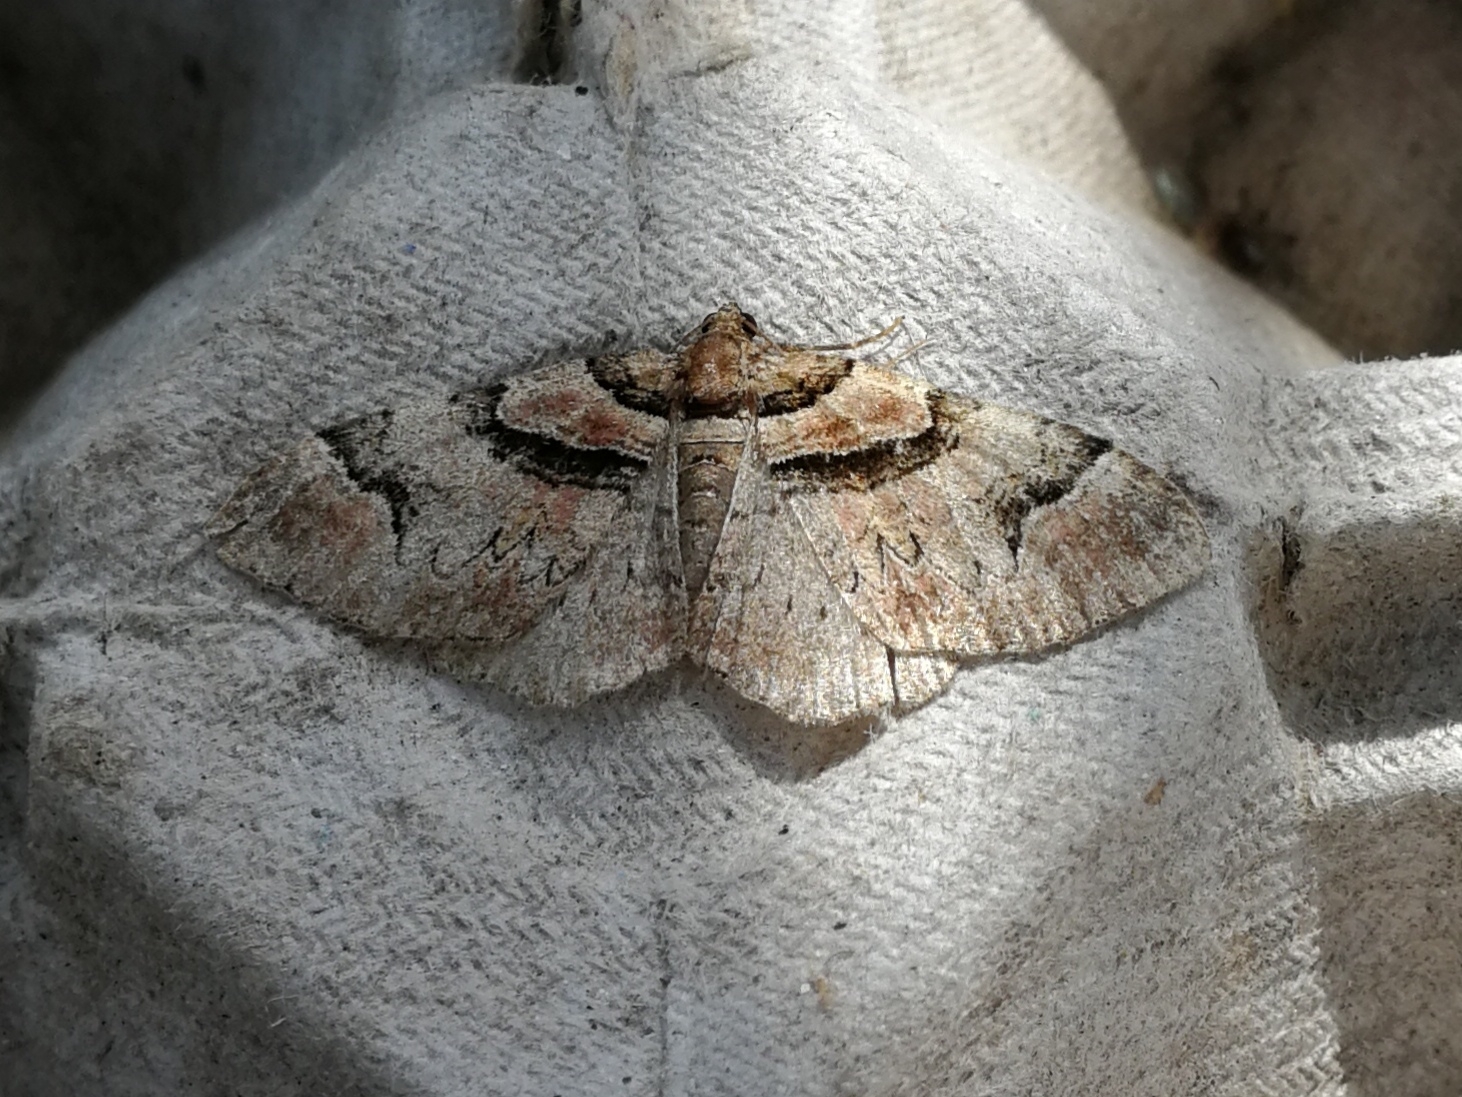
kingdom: Animalia
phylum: Arthropoda
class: Insecta
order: Lepidoptera
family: Geometridae
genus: Catarhoe
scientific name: Catarhoe rubidata
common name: Ruddy carpet
